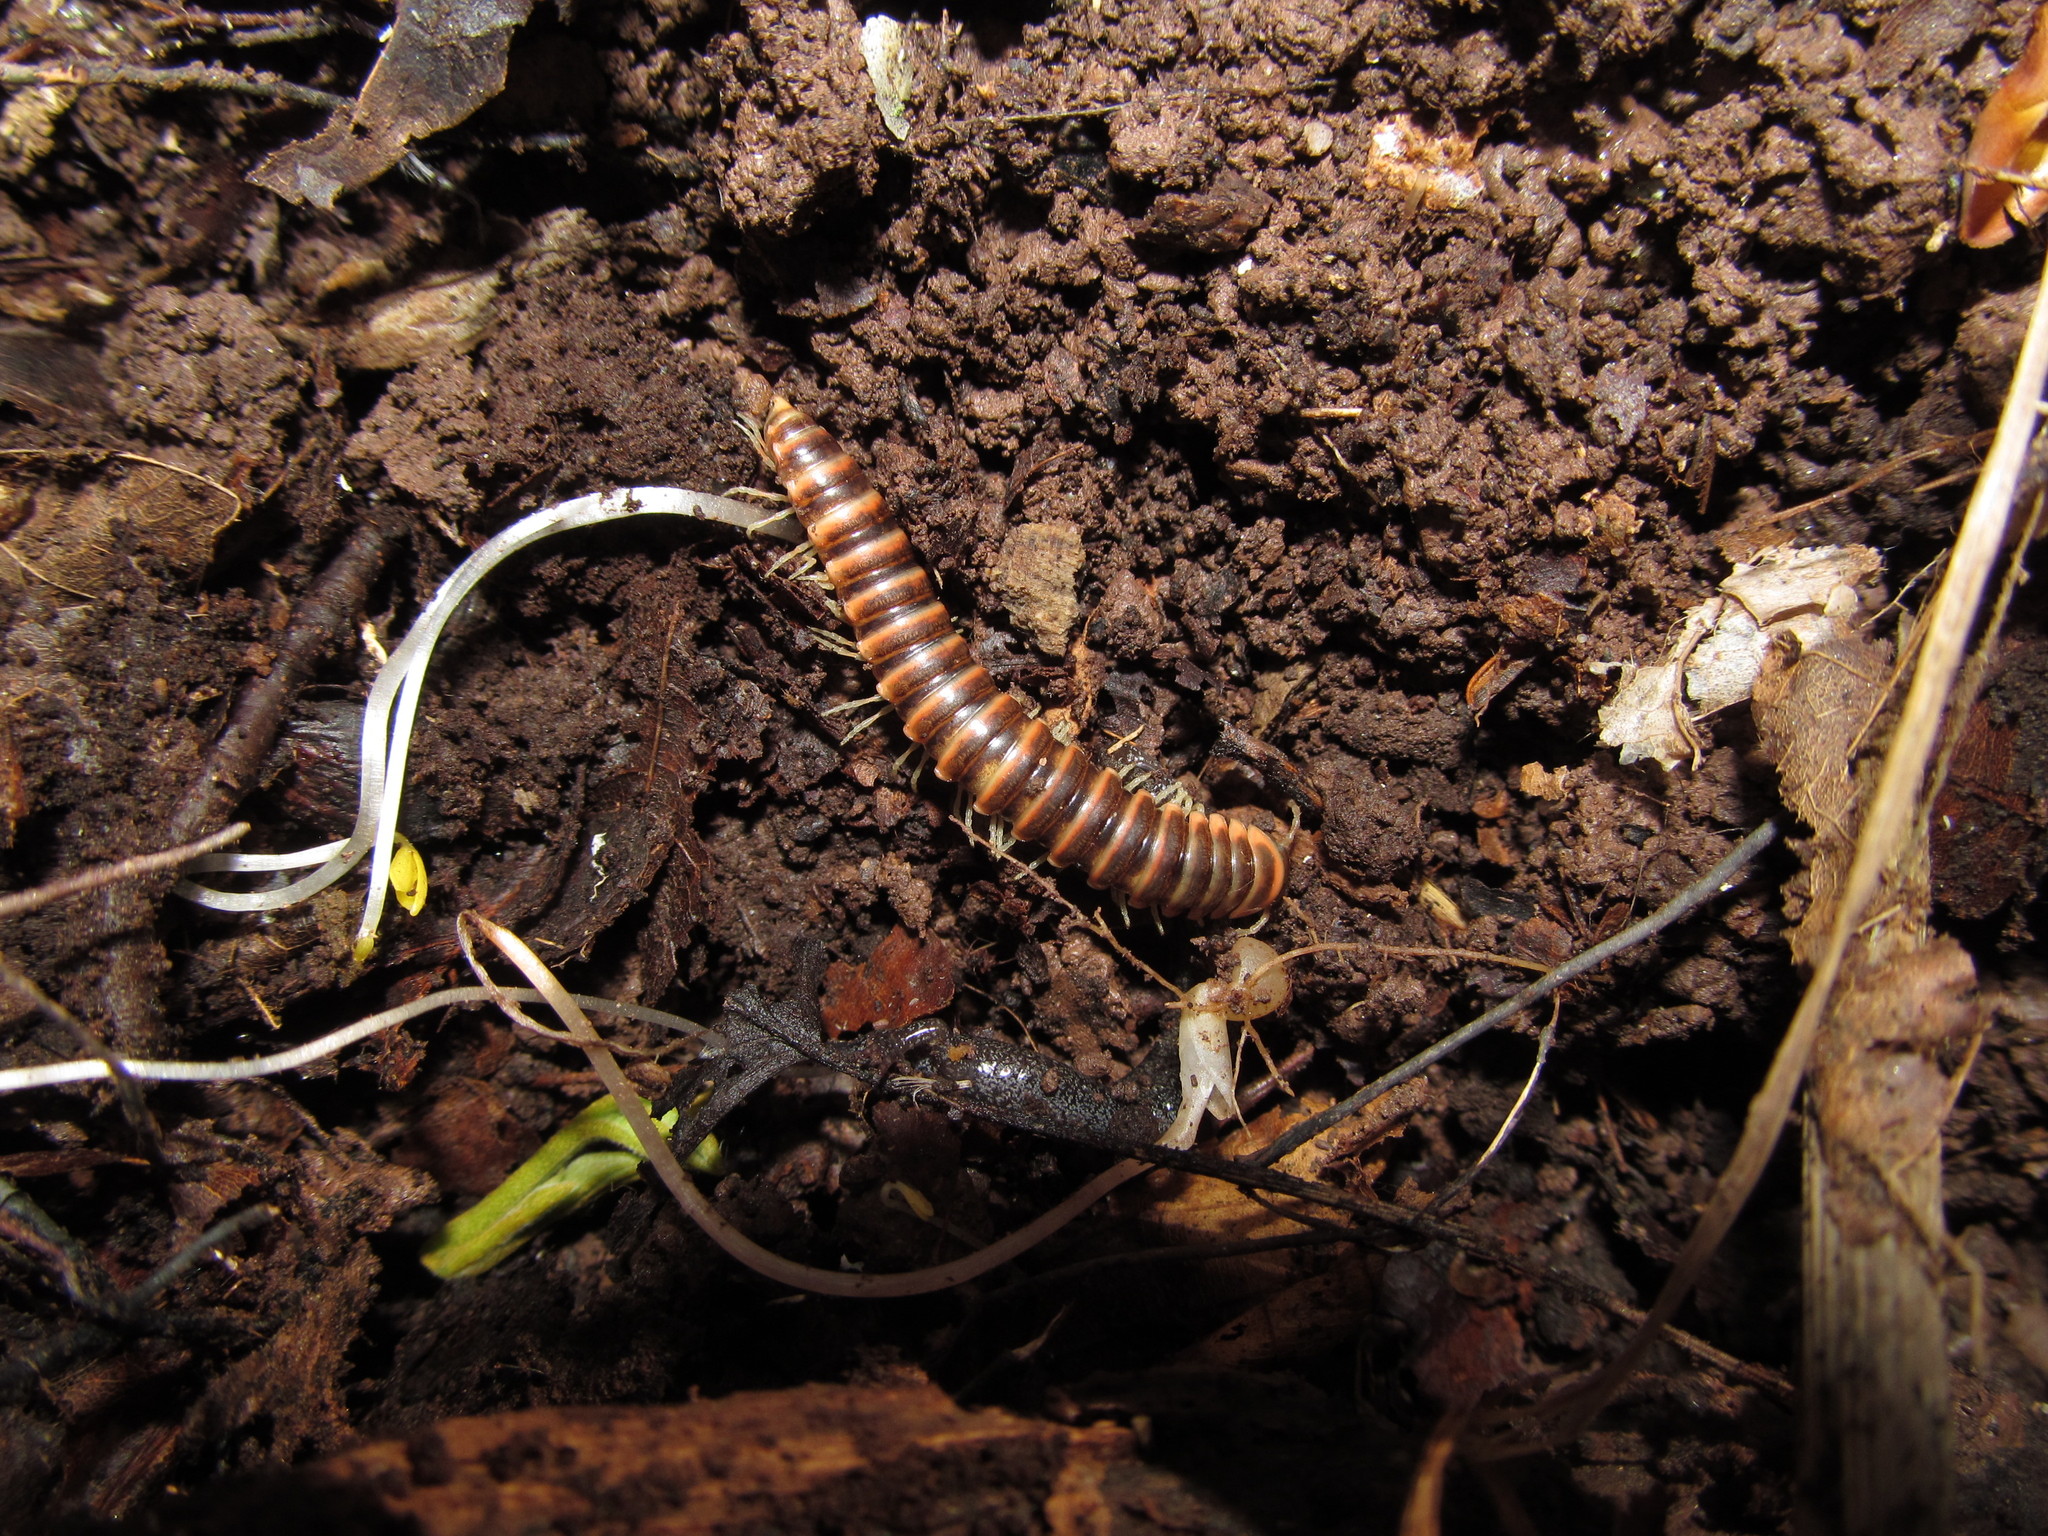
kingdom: Animalia
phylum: Arthropoda
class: Diplopoda
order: Polydesmida
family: Xystodesmidae
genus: Semionellus
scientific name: Semionellus placidus
